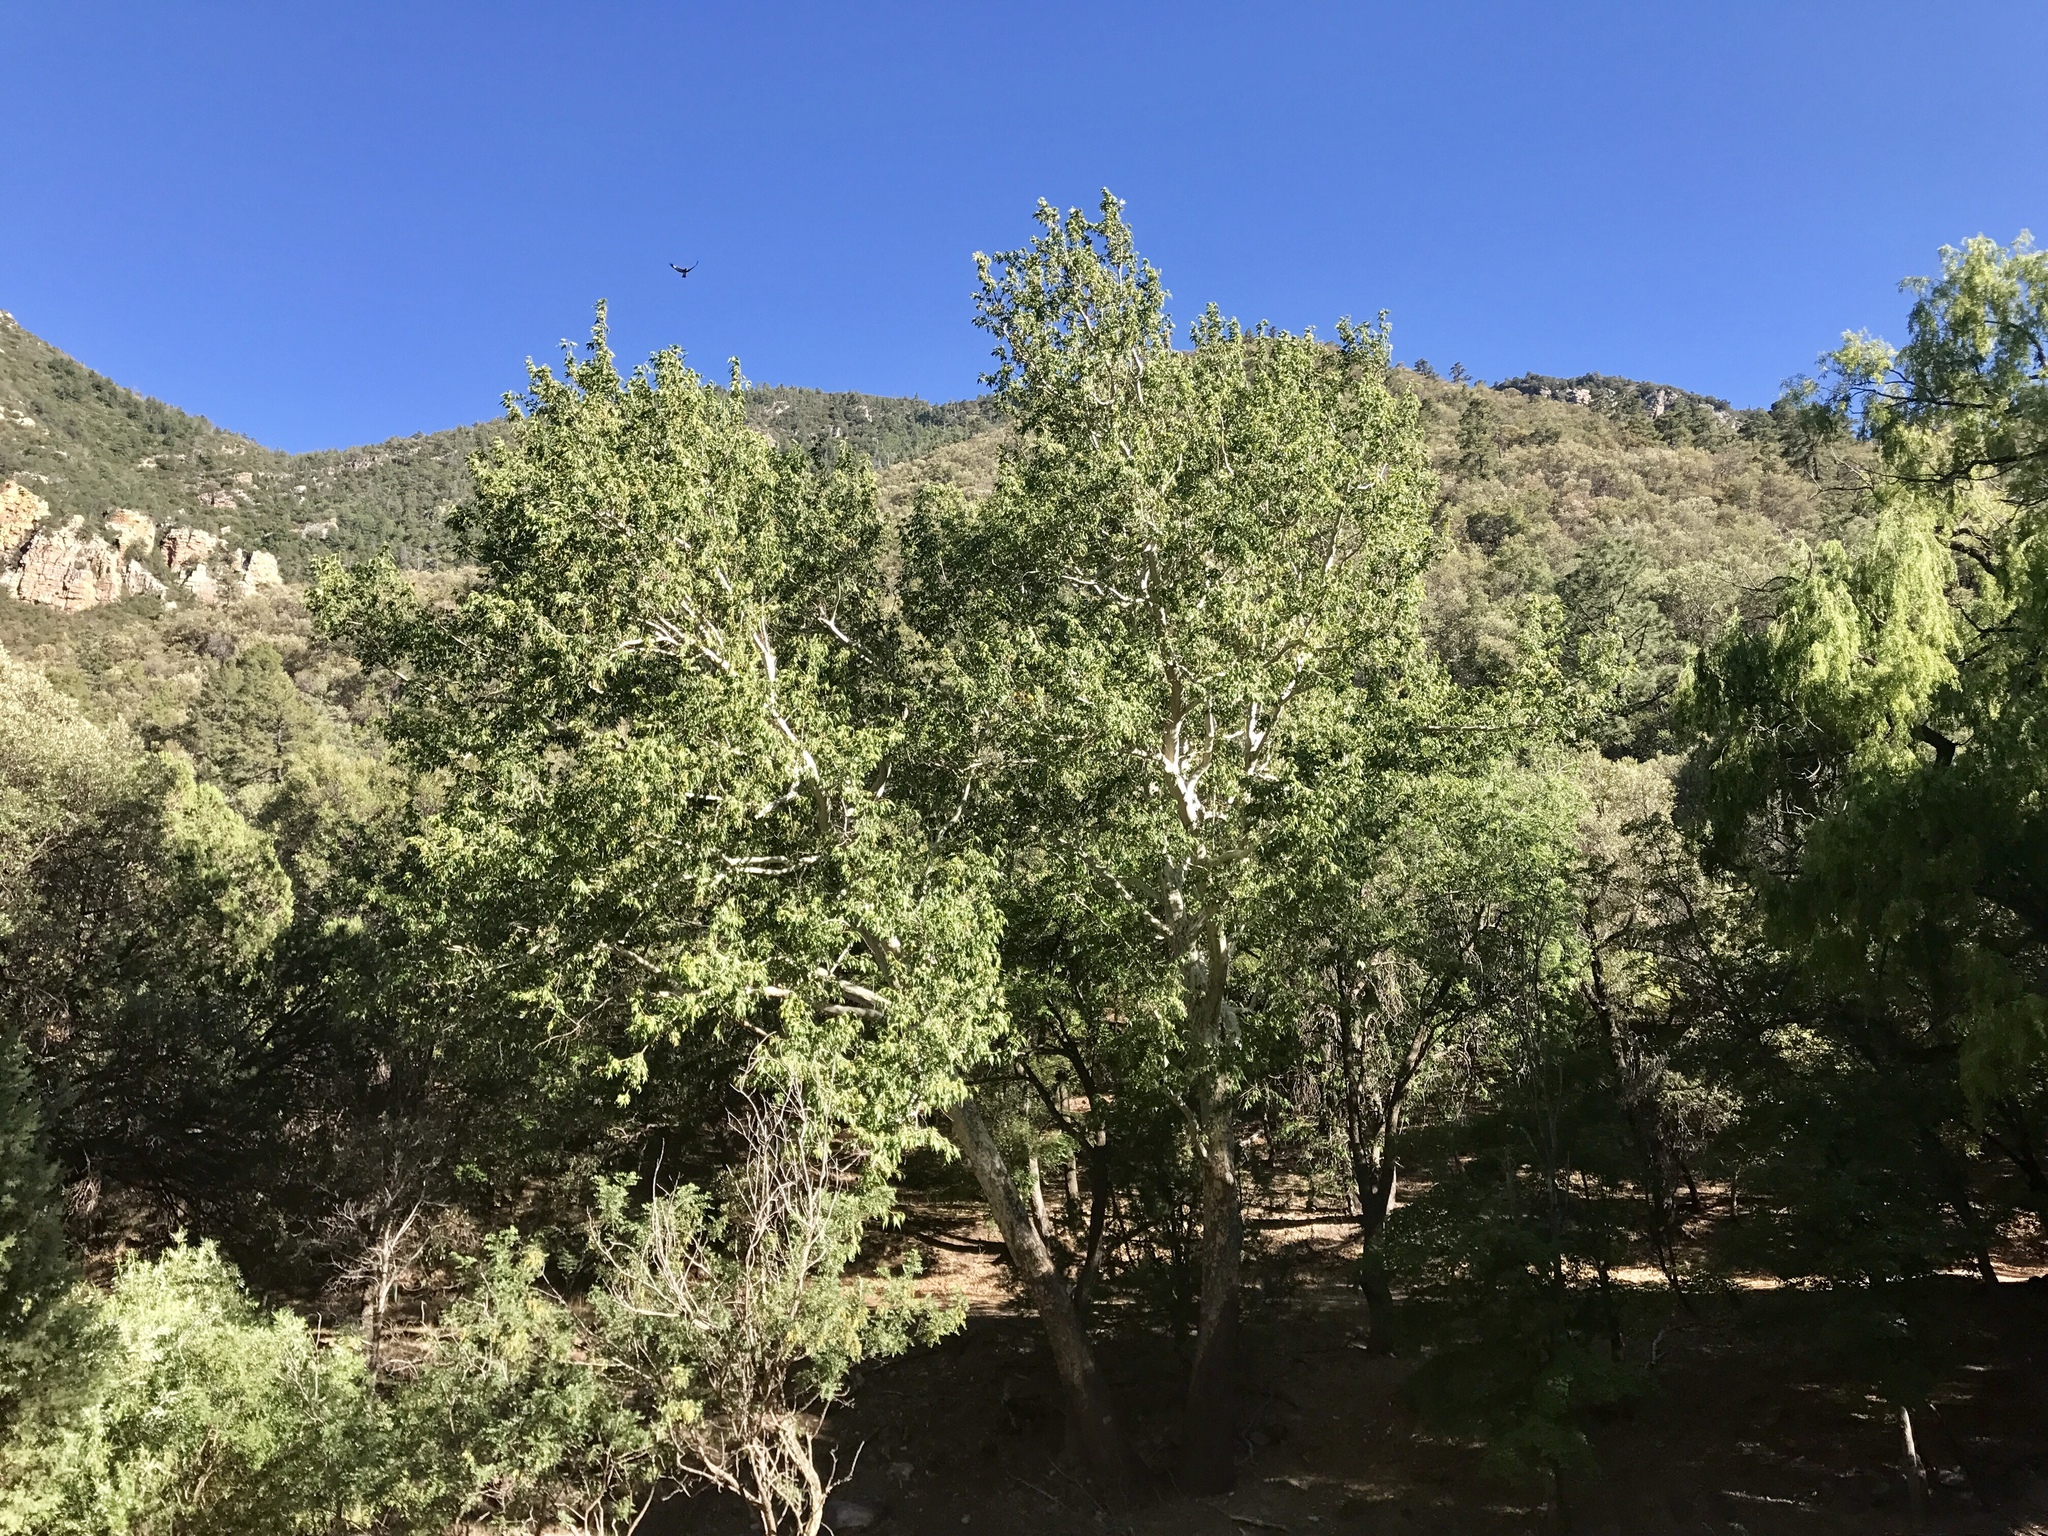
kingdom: Plantae
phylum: Tracheophyta
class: Magnoliopsida
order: Proteales
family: Platanaceae
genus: Platanus
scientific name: Platanus wrightii
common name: Arizona sycamore
